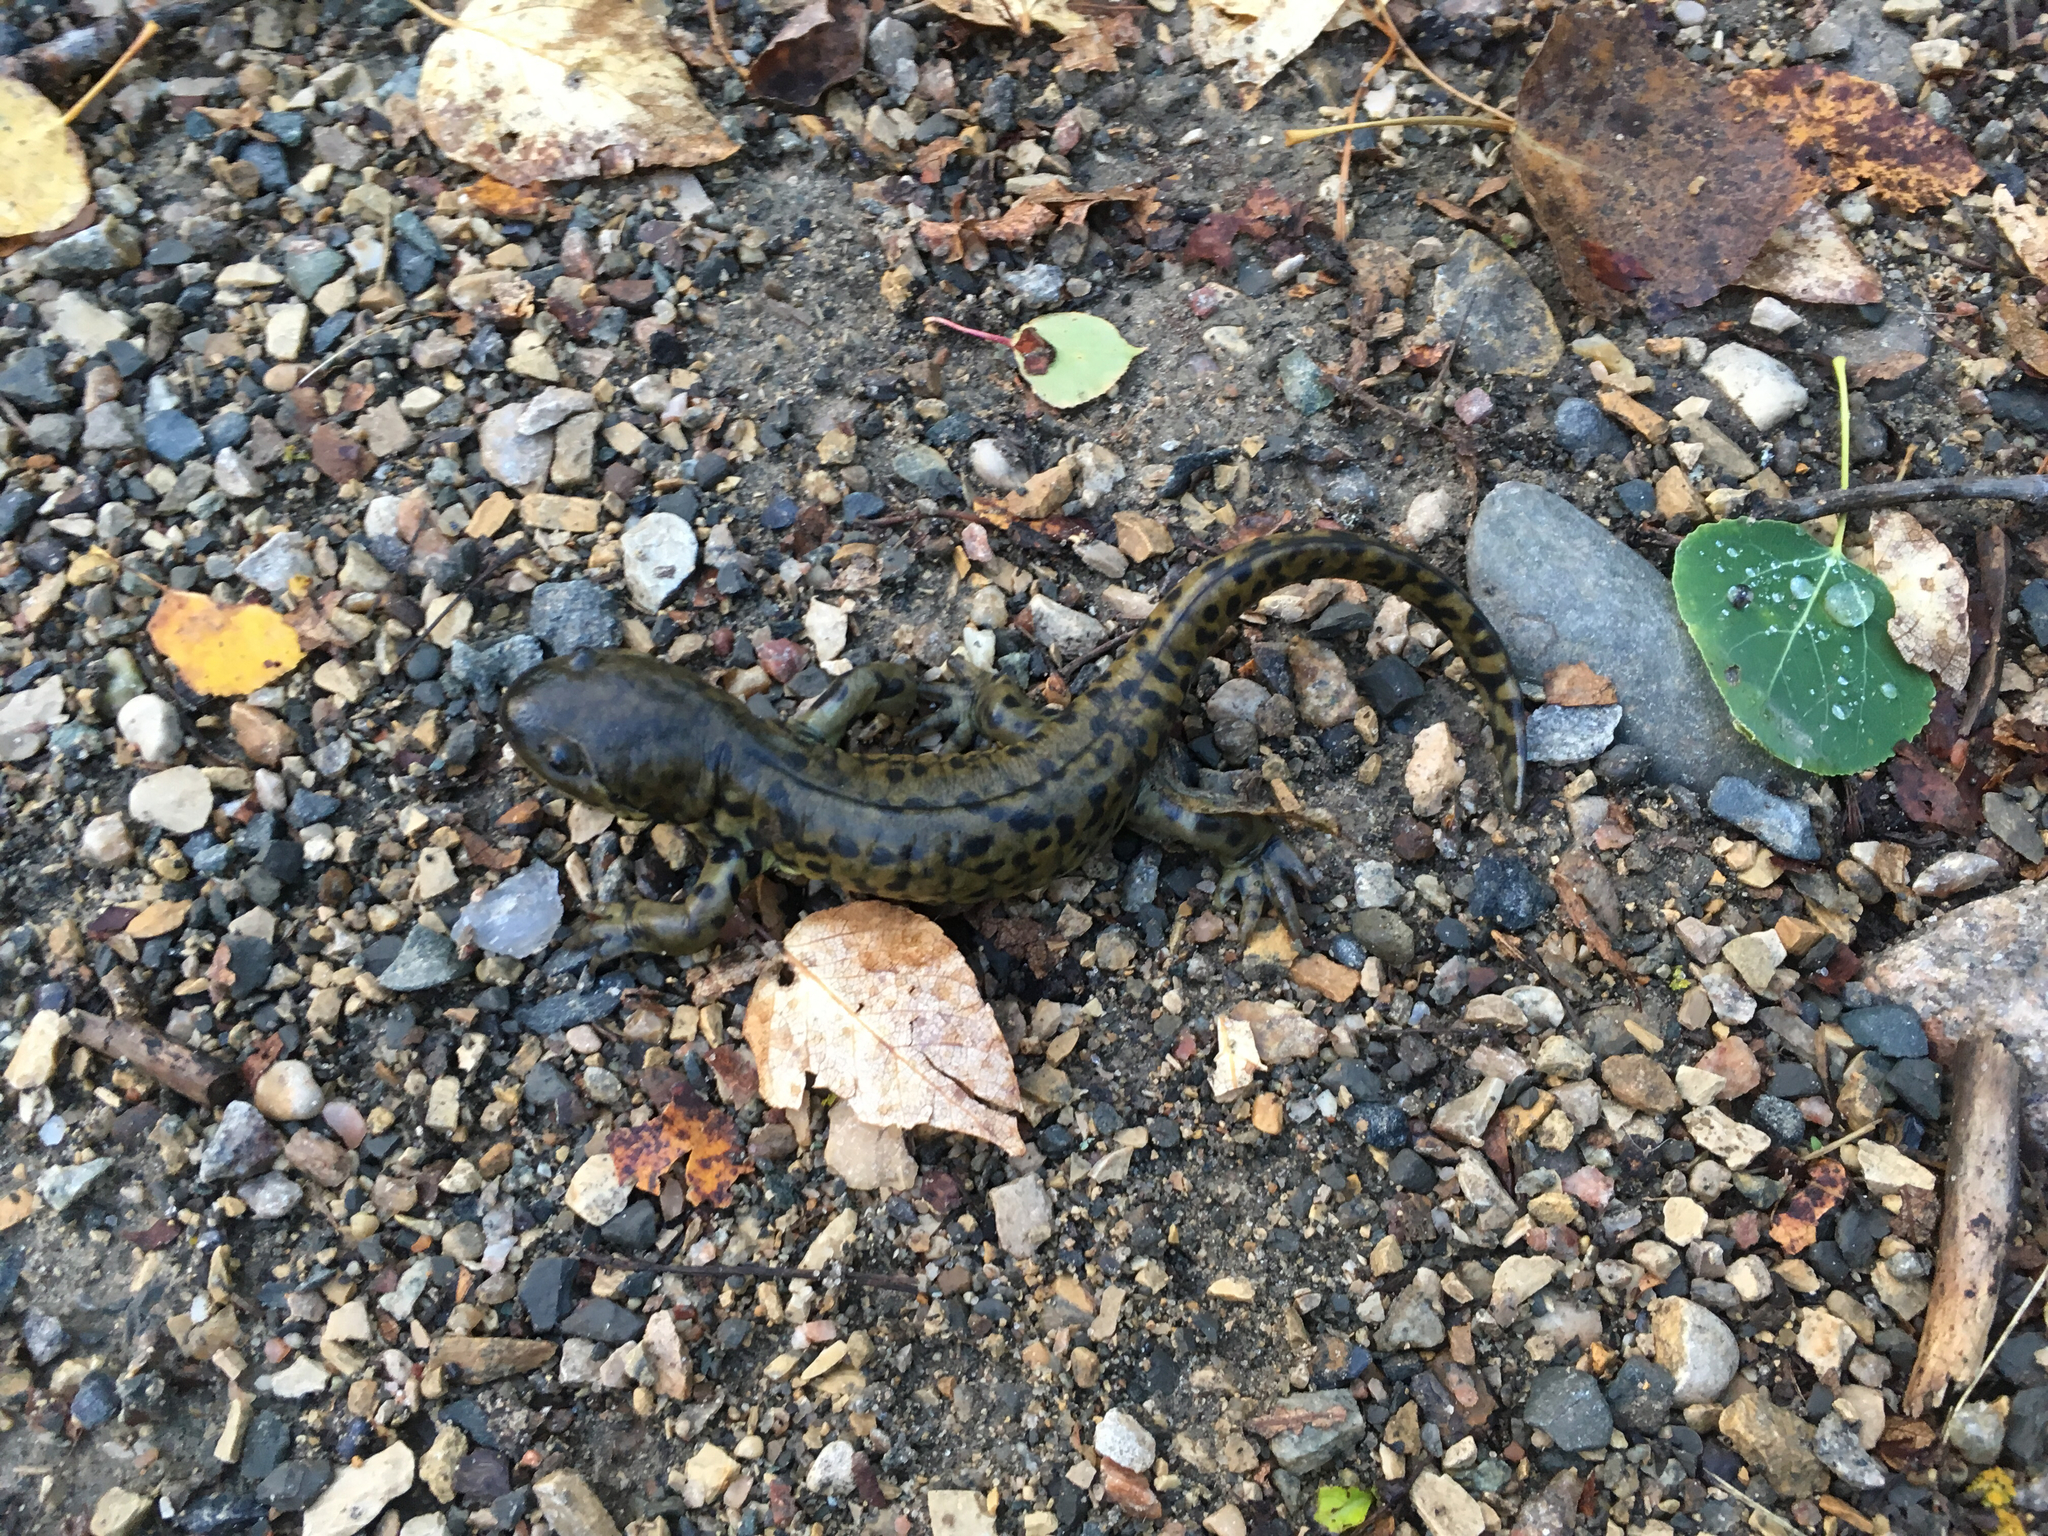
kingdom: Animalia
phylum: Chordata
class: Amphibia
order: Caudata
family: Ambystomatidae
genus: Ambystoma
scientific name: Ambystoma mavortium
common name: Western tiger salamander
